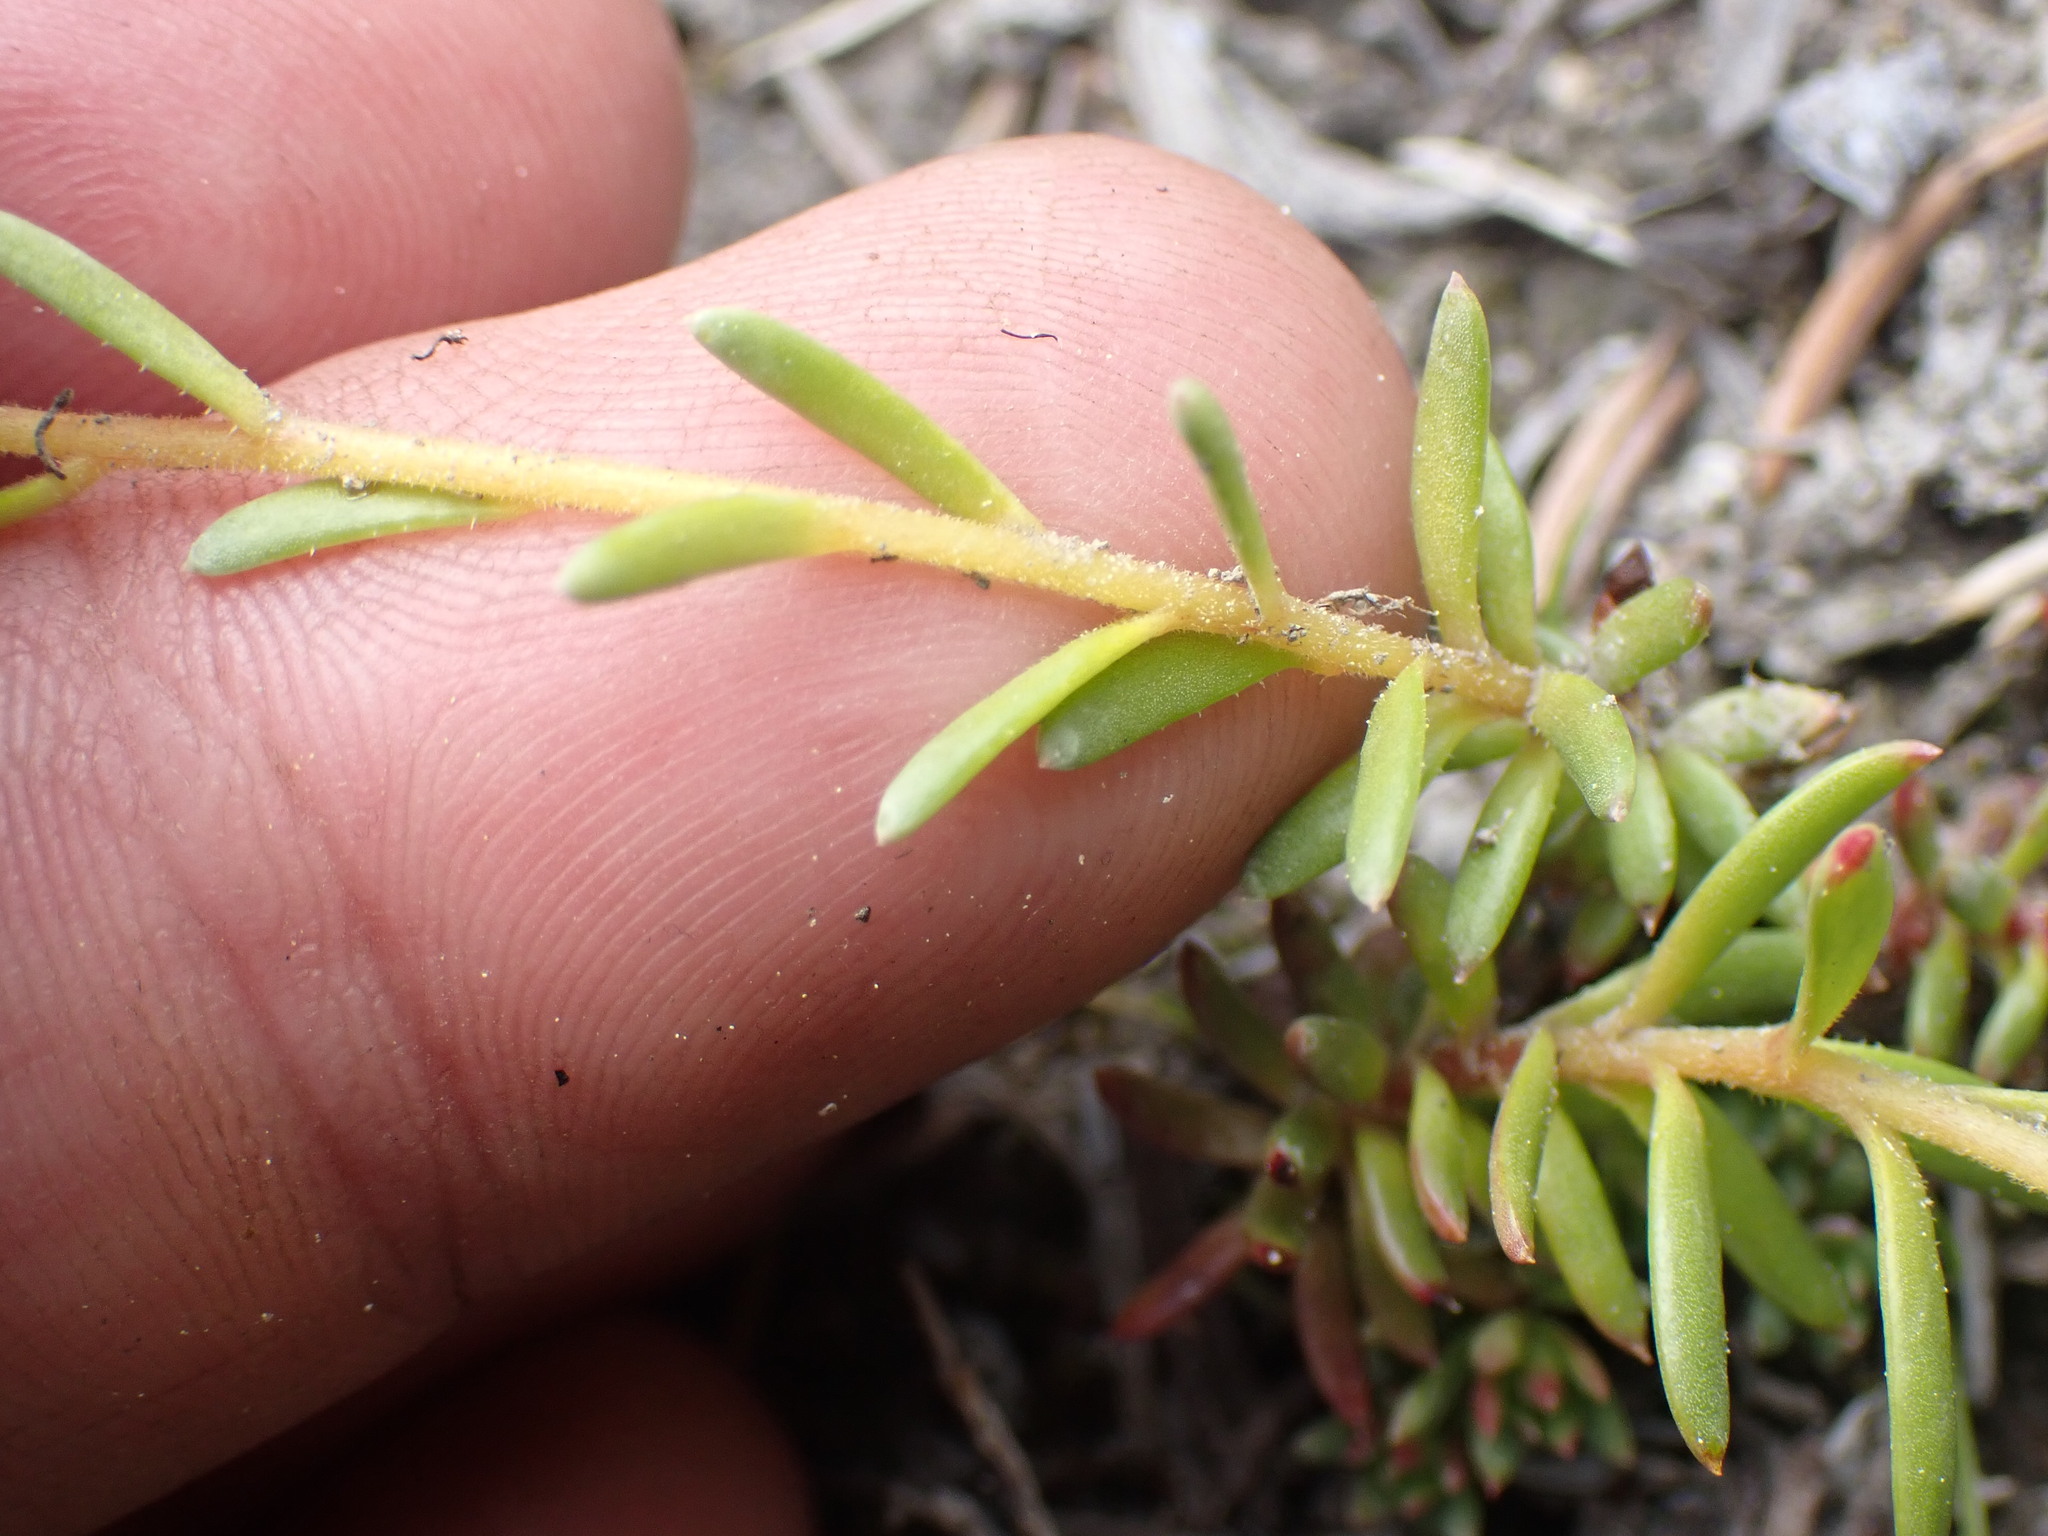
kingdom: Plantae
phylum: Tracheophyta
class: Magnoliopsida
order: Saxifragales
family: Saxifragaceae
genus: Saxifraga
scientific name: Saxifraga aizoides
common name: Yellow mountain saxifrage
